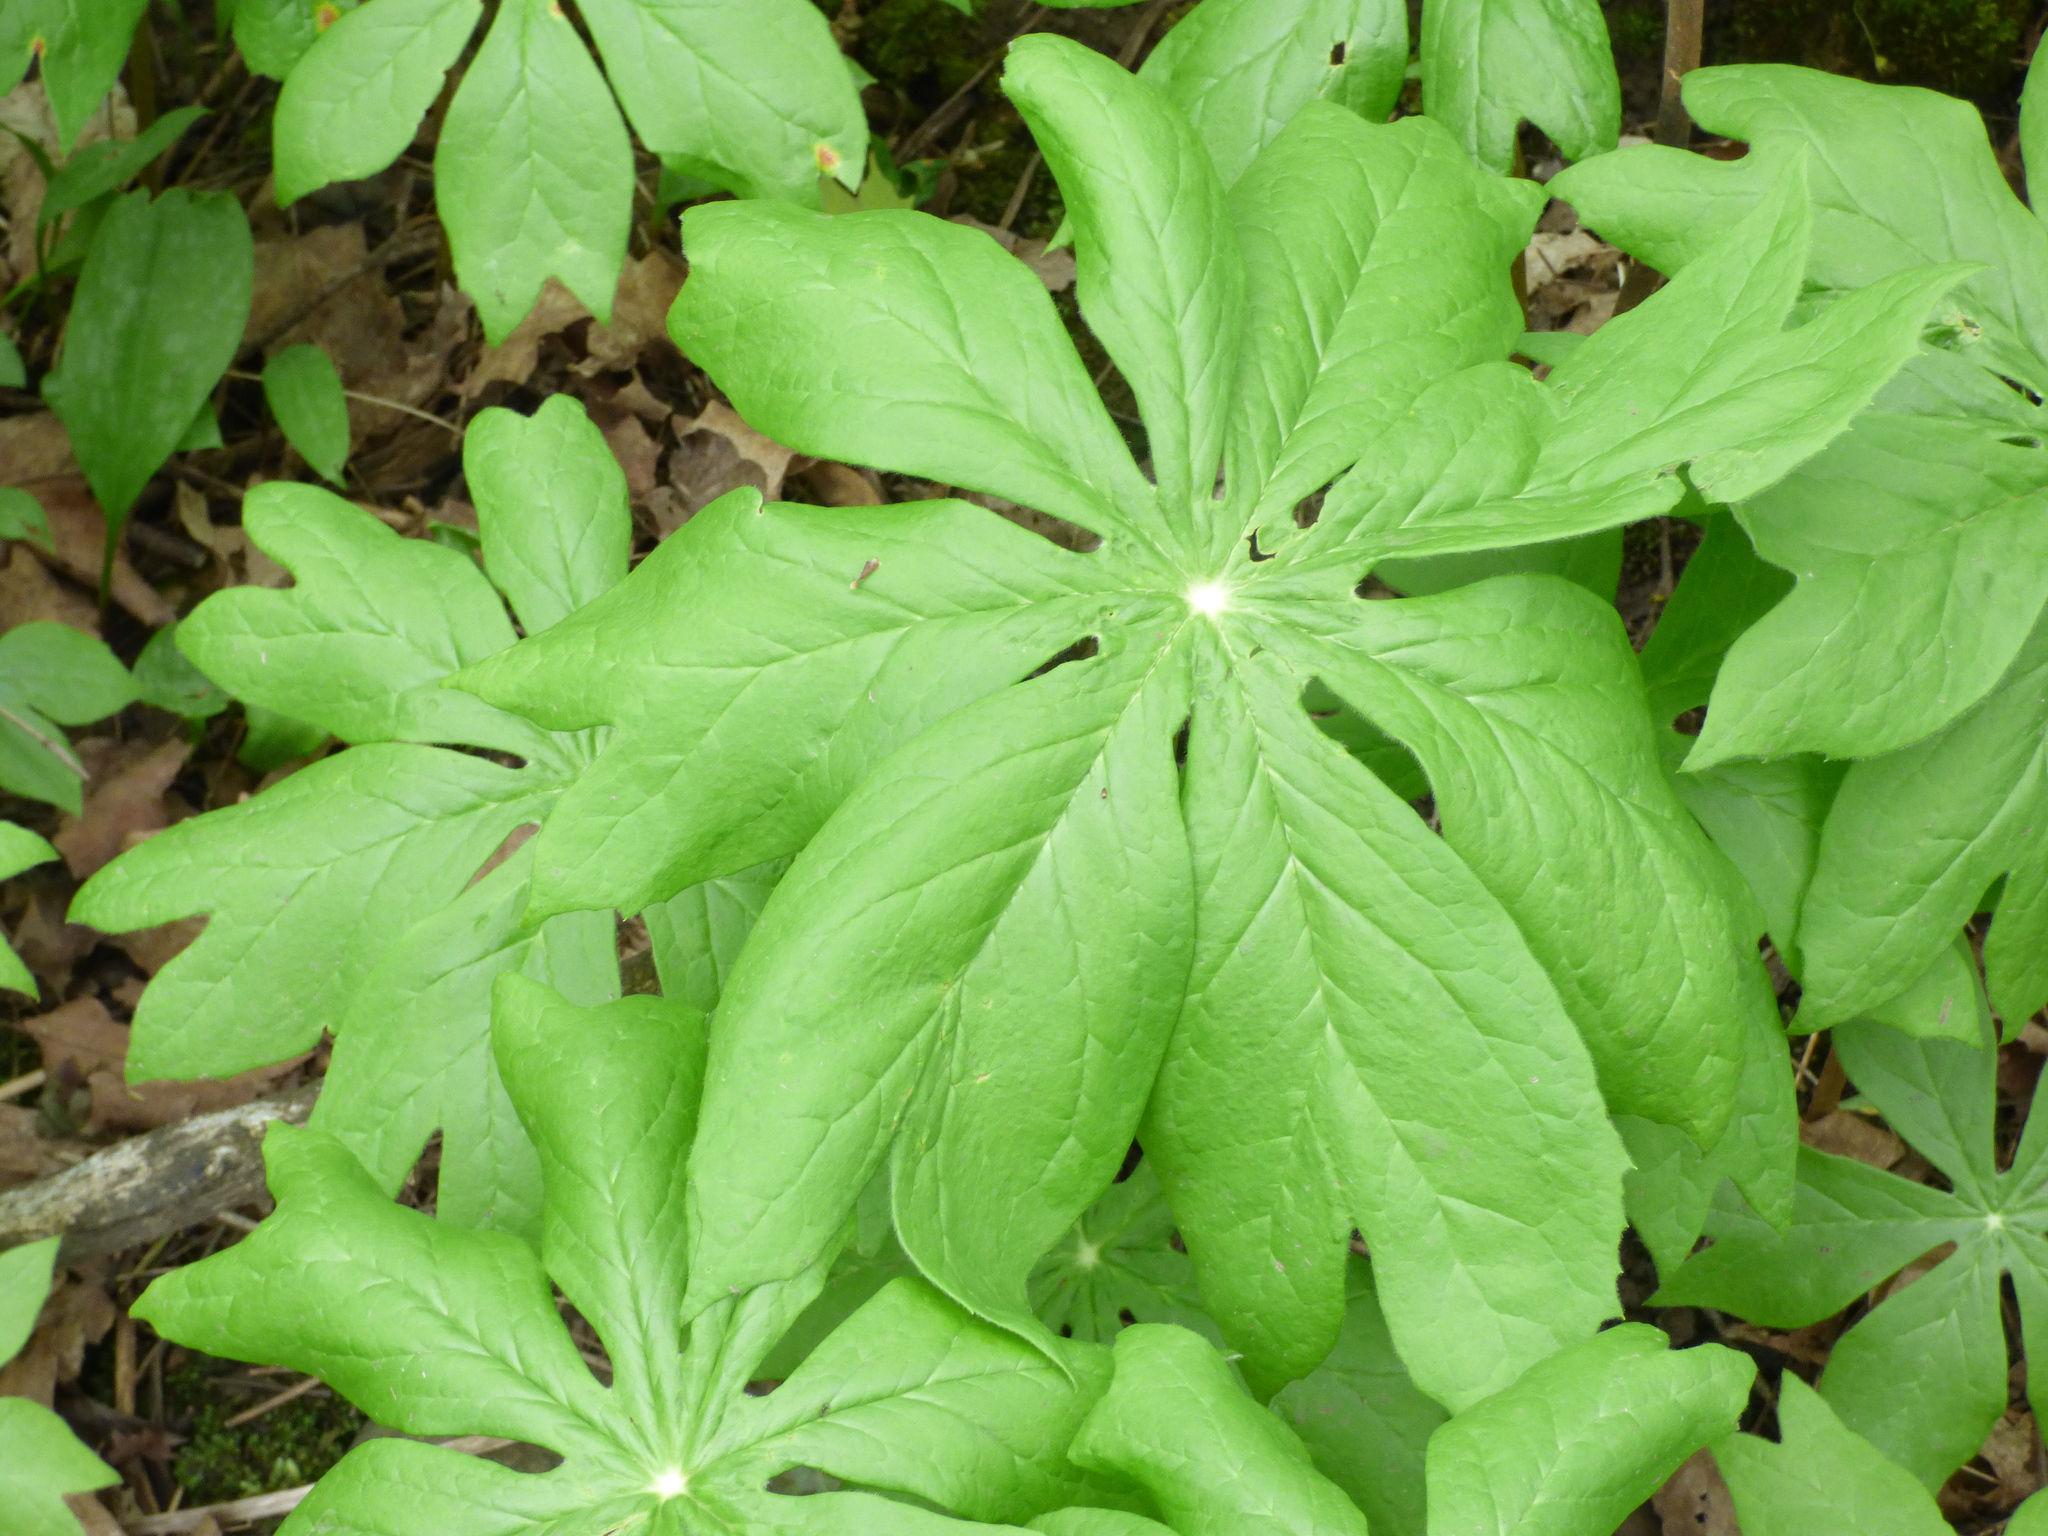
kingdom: Plantae
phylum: Tracheophyta
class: Magnoliopsida
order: Ranunculales
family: Berberidaceae
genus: Podophyllum
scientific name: Podophyllum peltatum
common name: Wild mandrake
